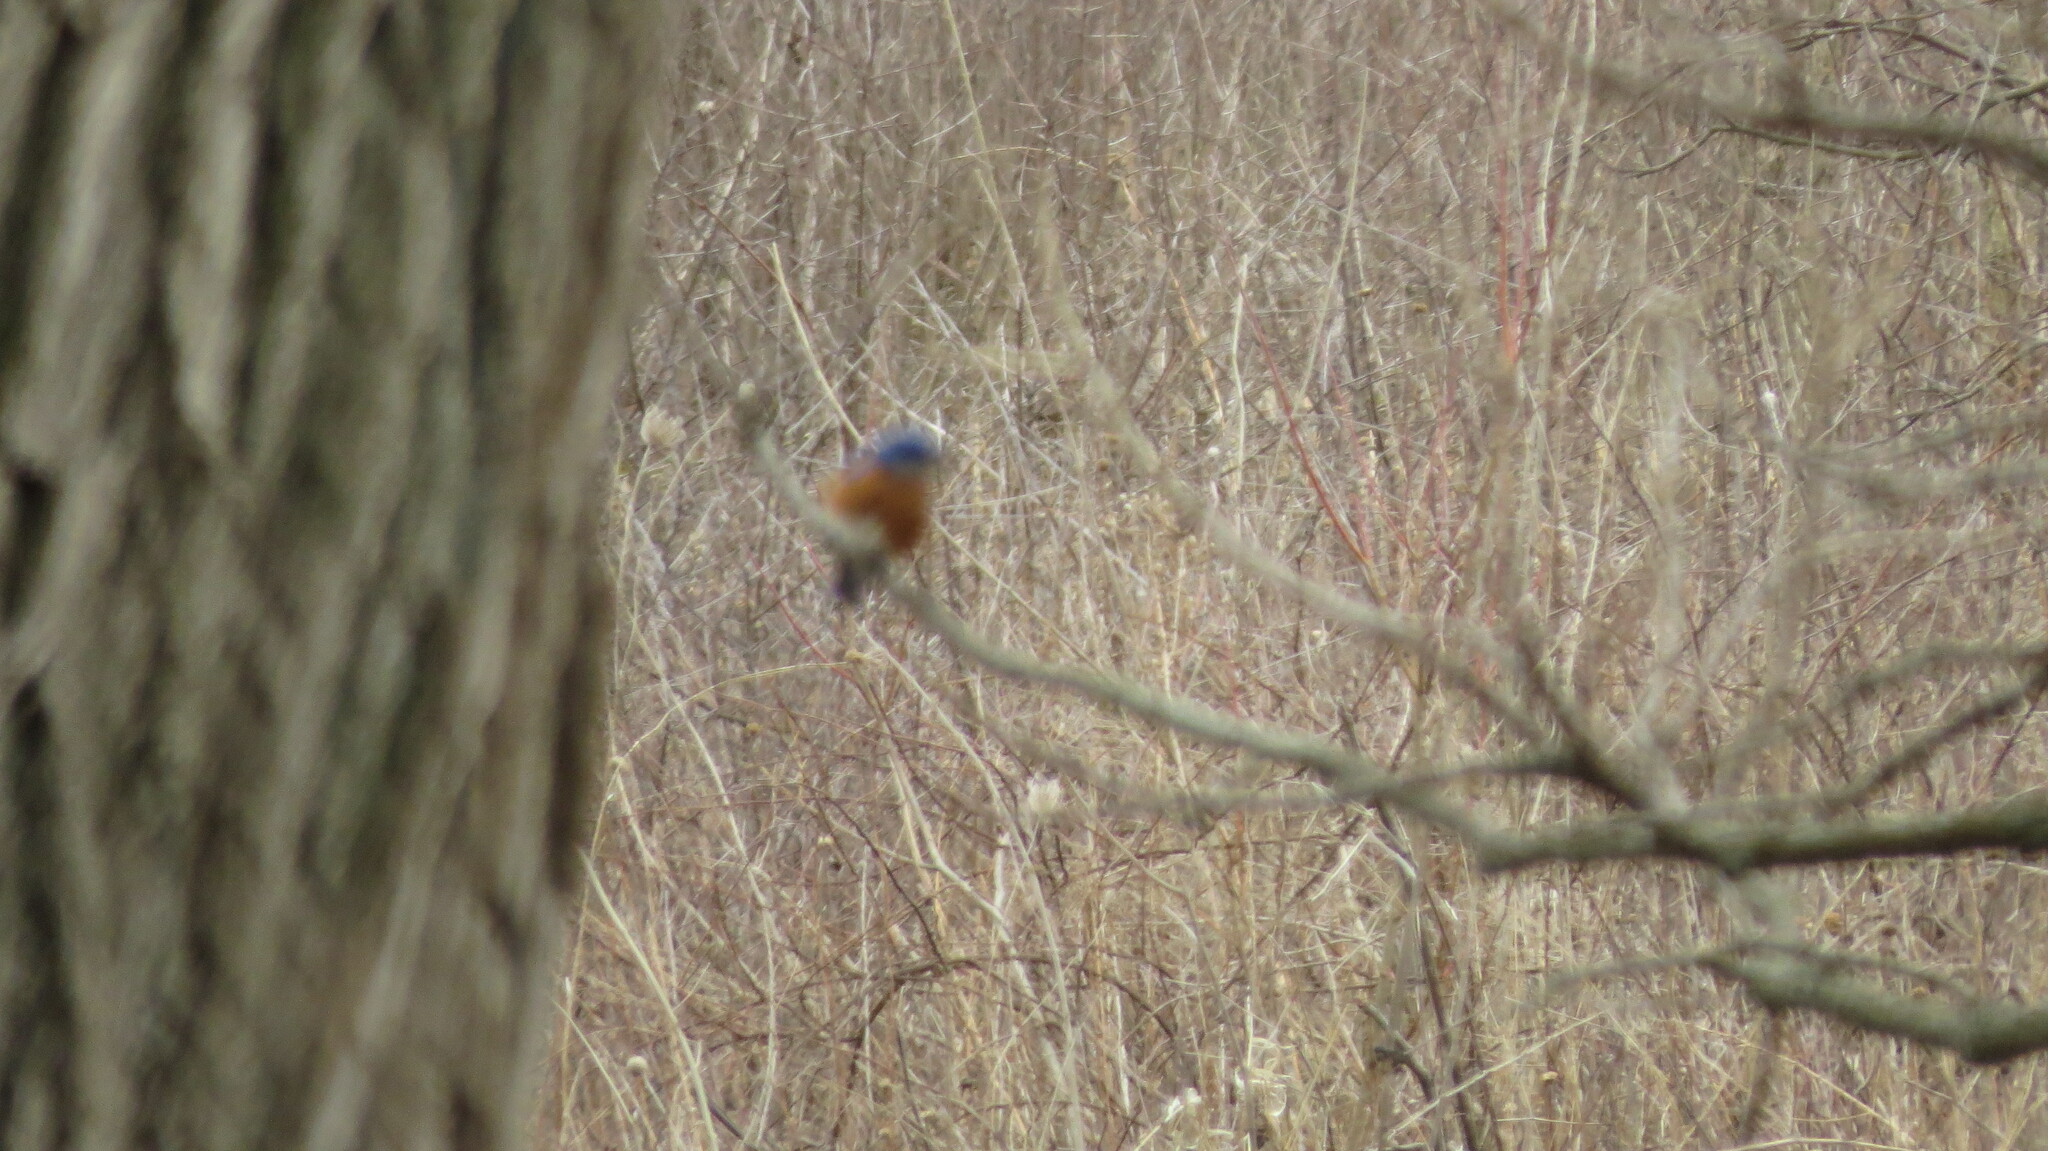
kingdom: Animalia
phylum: Chordata
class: Aves
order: Passeriformes
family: Turdidae
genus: Sialia
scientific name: Sialia sialis
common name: Eastern bluebird
